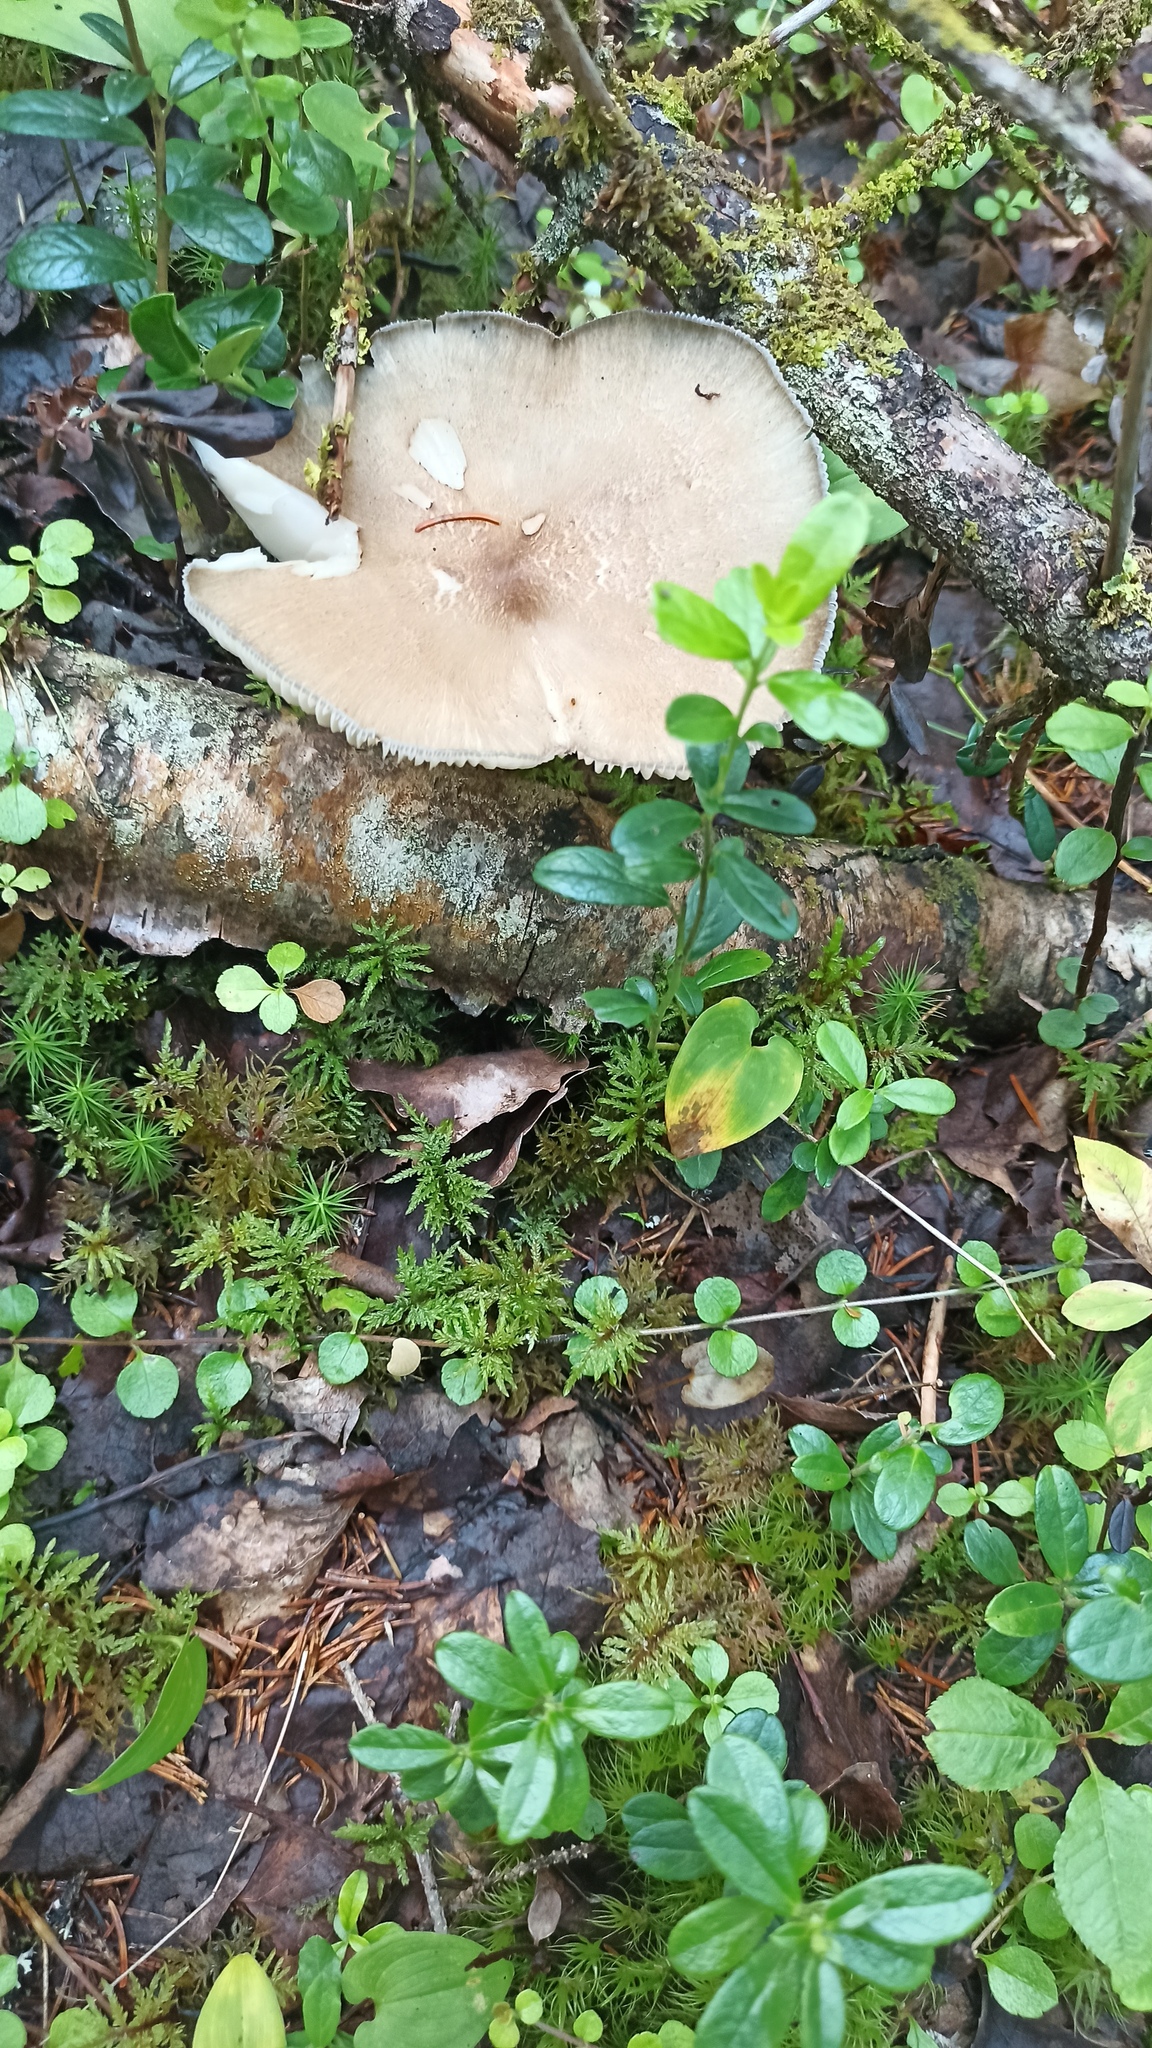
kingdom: Fungi
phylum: Basidiomycota
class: Agaricomycetes
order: Agaricales
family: Tricholomataceae
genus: Megacollybia
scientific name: Megacollybia platyphylla
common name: Whitelaced shank
